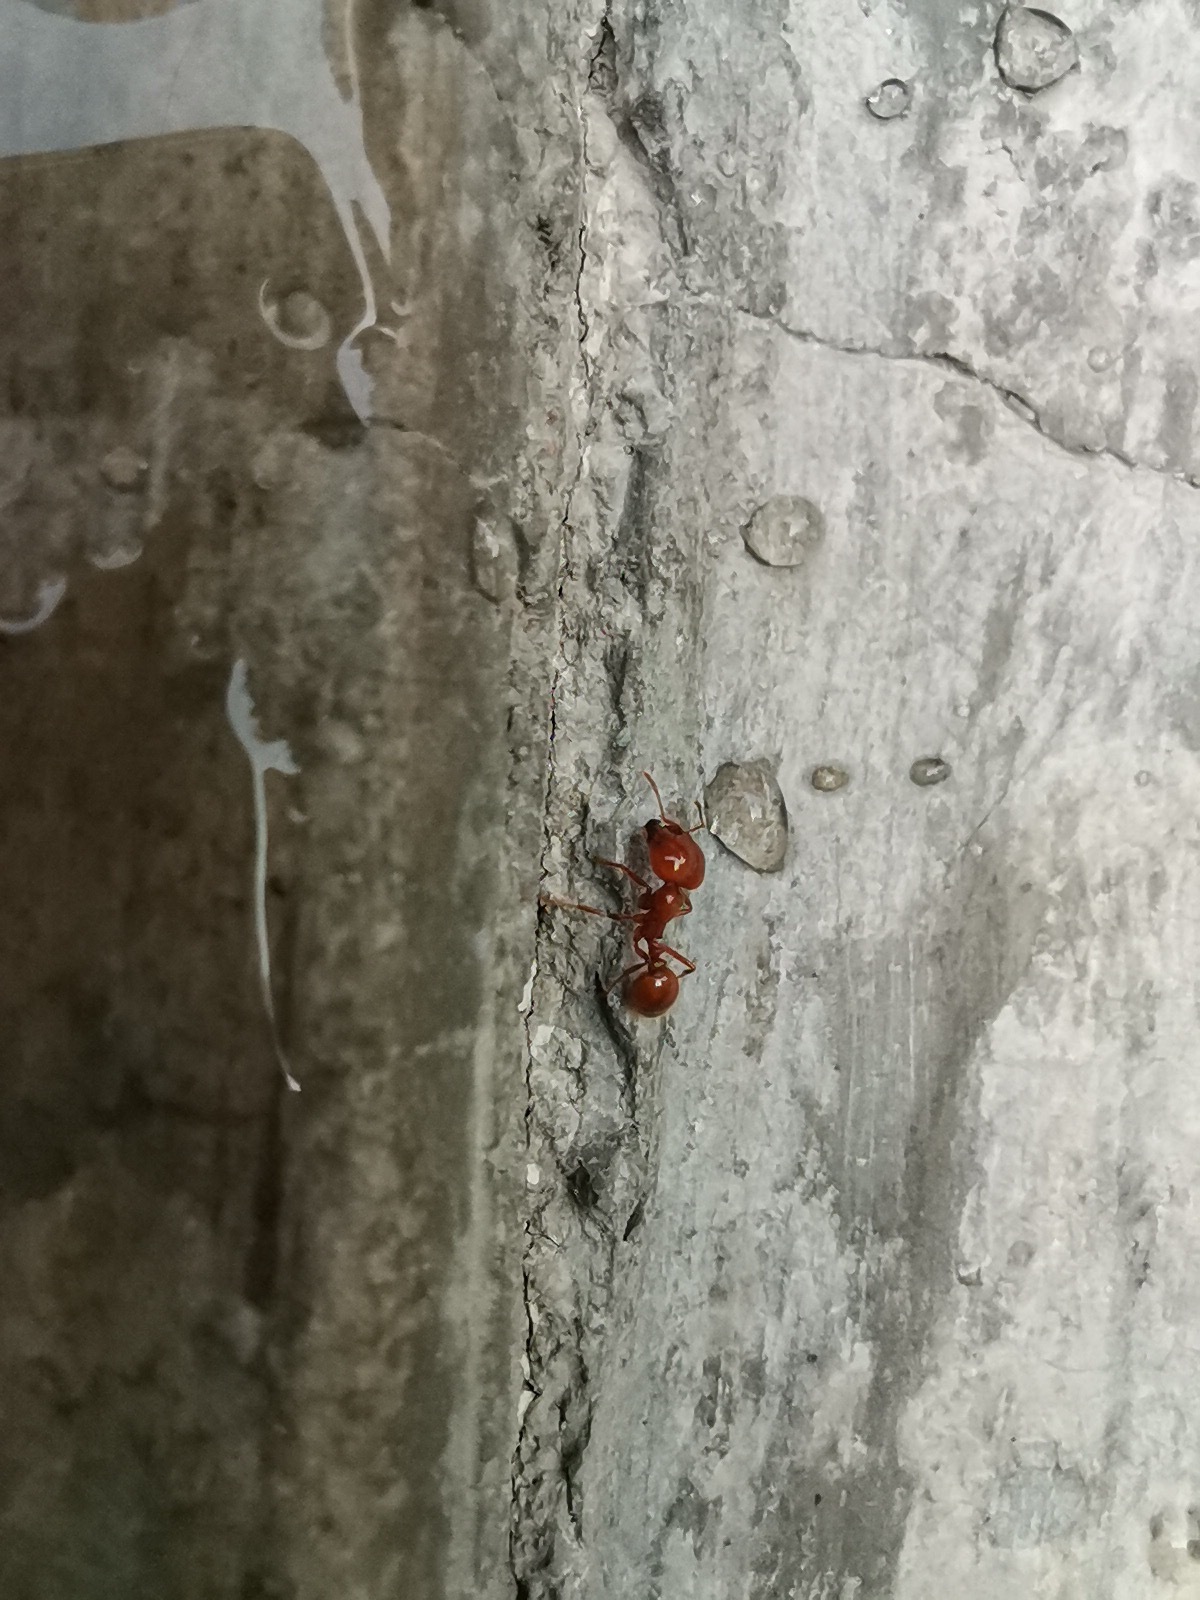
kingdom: Animalia
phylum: Arthropoda
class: Insecta
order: Hymenoptera
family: Formicidae
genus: Solenopsis
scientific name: Solenopsis geminata
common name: Tropical fire ant
